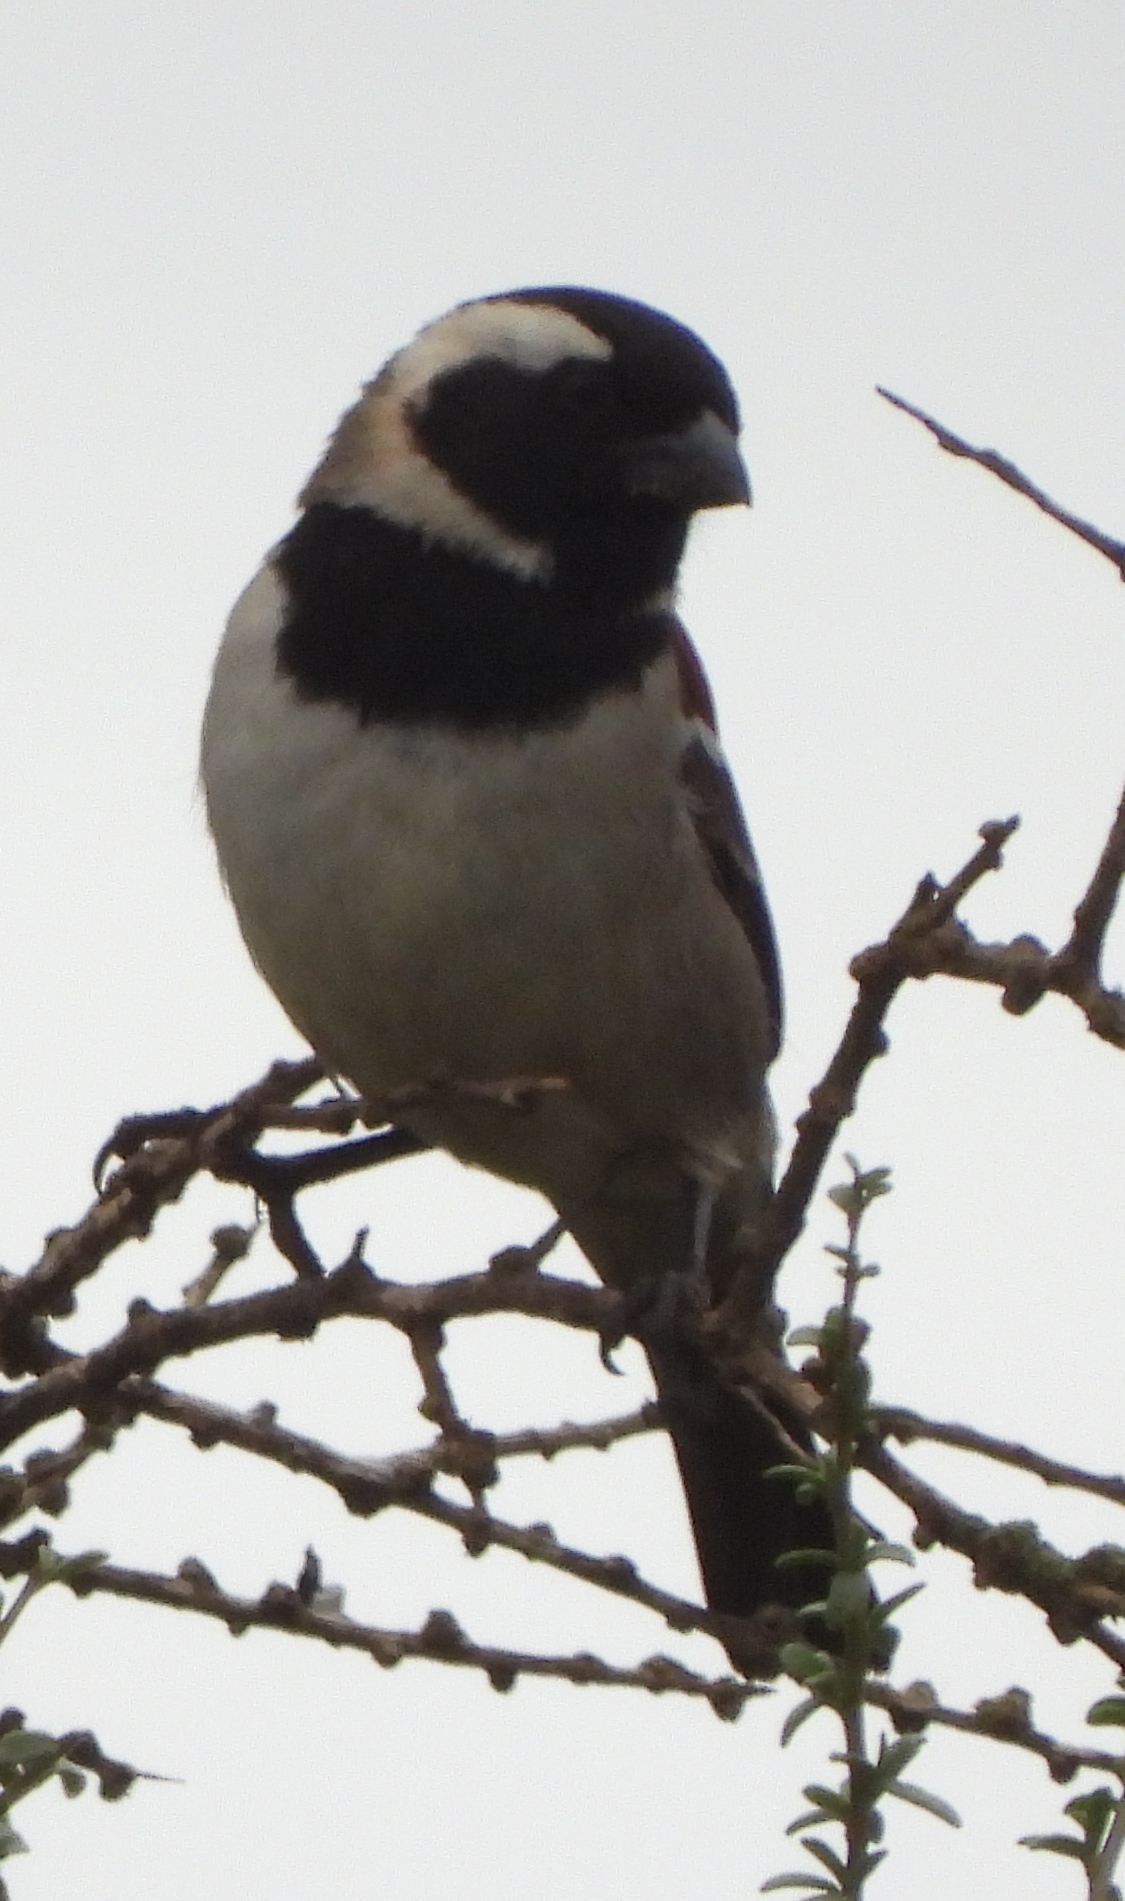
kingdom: Animalia
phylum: Chordata
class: Aves
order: Passeriformes
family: Passeridae
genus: Passer
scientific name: Passer melanurus
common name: Cape sparrow
